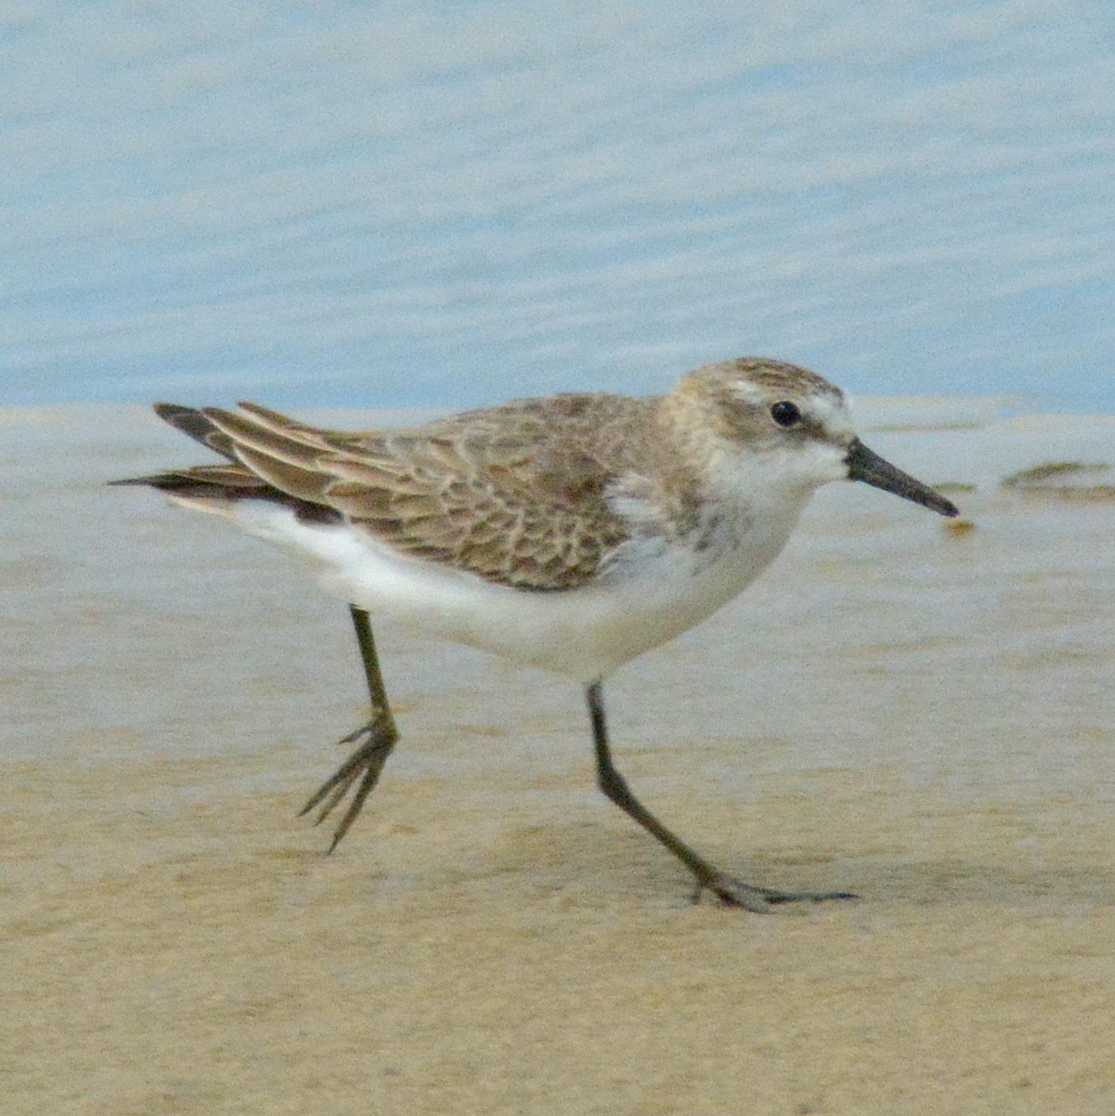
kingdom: Animalia
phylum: Chordata
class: Aves
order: Charadriiformes
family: Scolopacidae
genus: Calidris
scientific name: Calidris pusilla
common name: Semipalmated sandpiper
